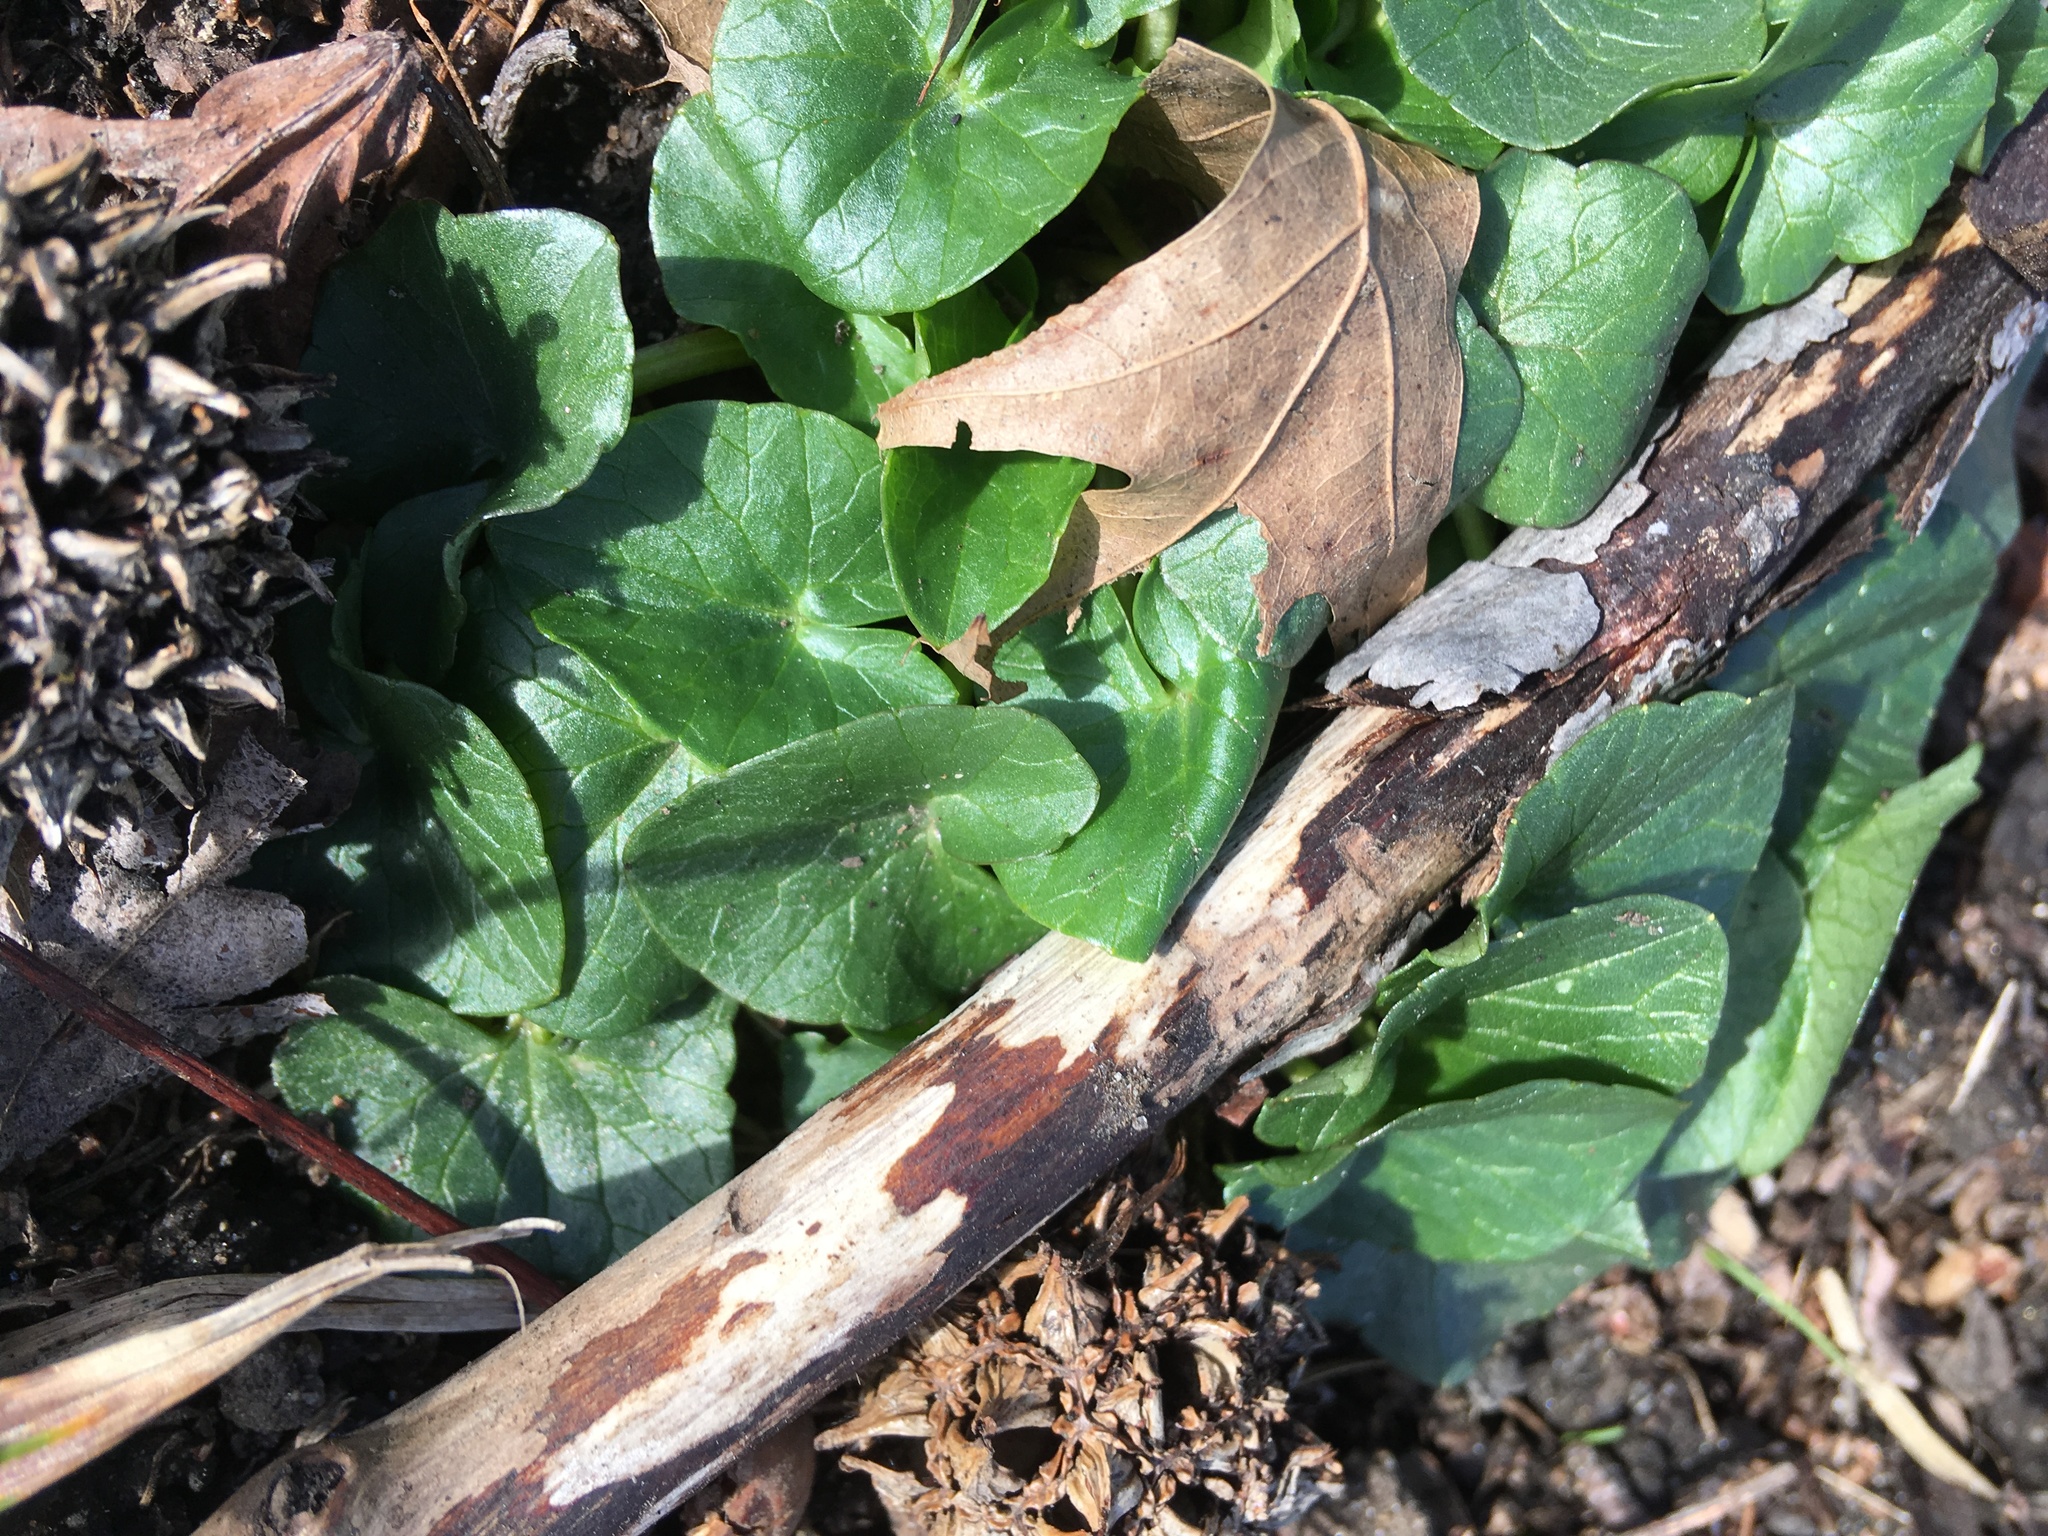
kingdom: Plantae
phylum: Tracheophyta
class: Magnoliopsida
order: Ranunculales
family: Ranunculaceae
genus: Ficaria
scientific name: Ficaria verna
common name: Lesser celandine
